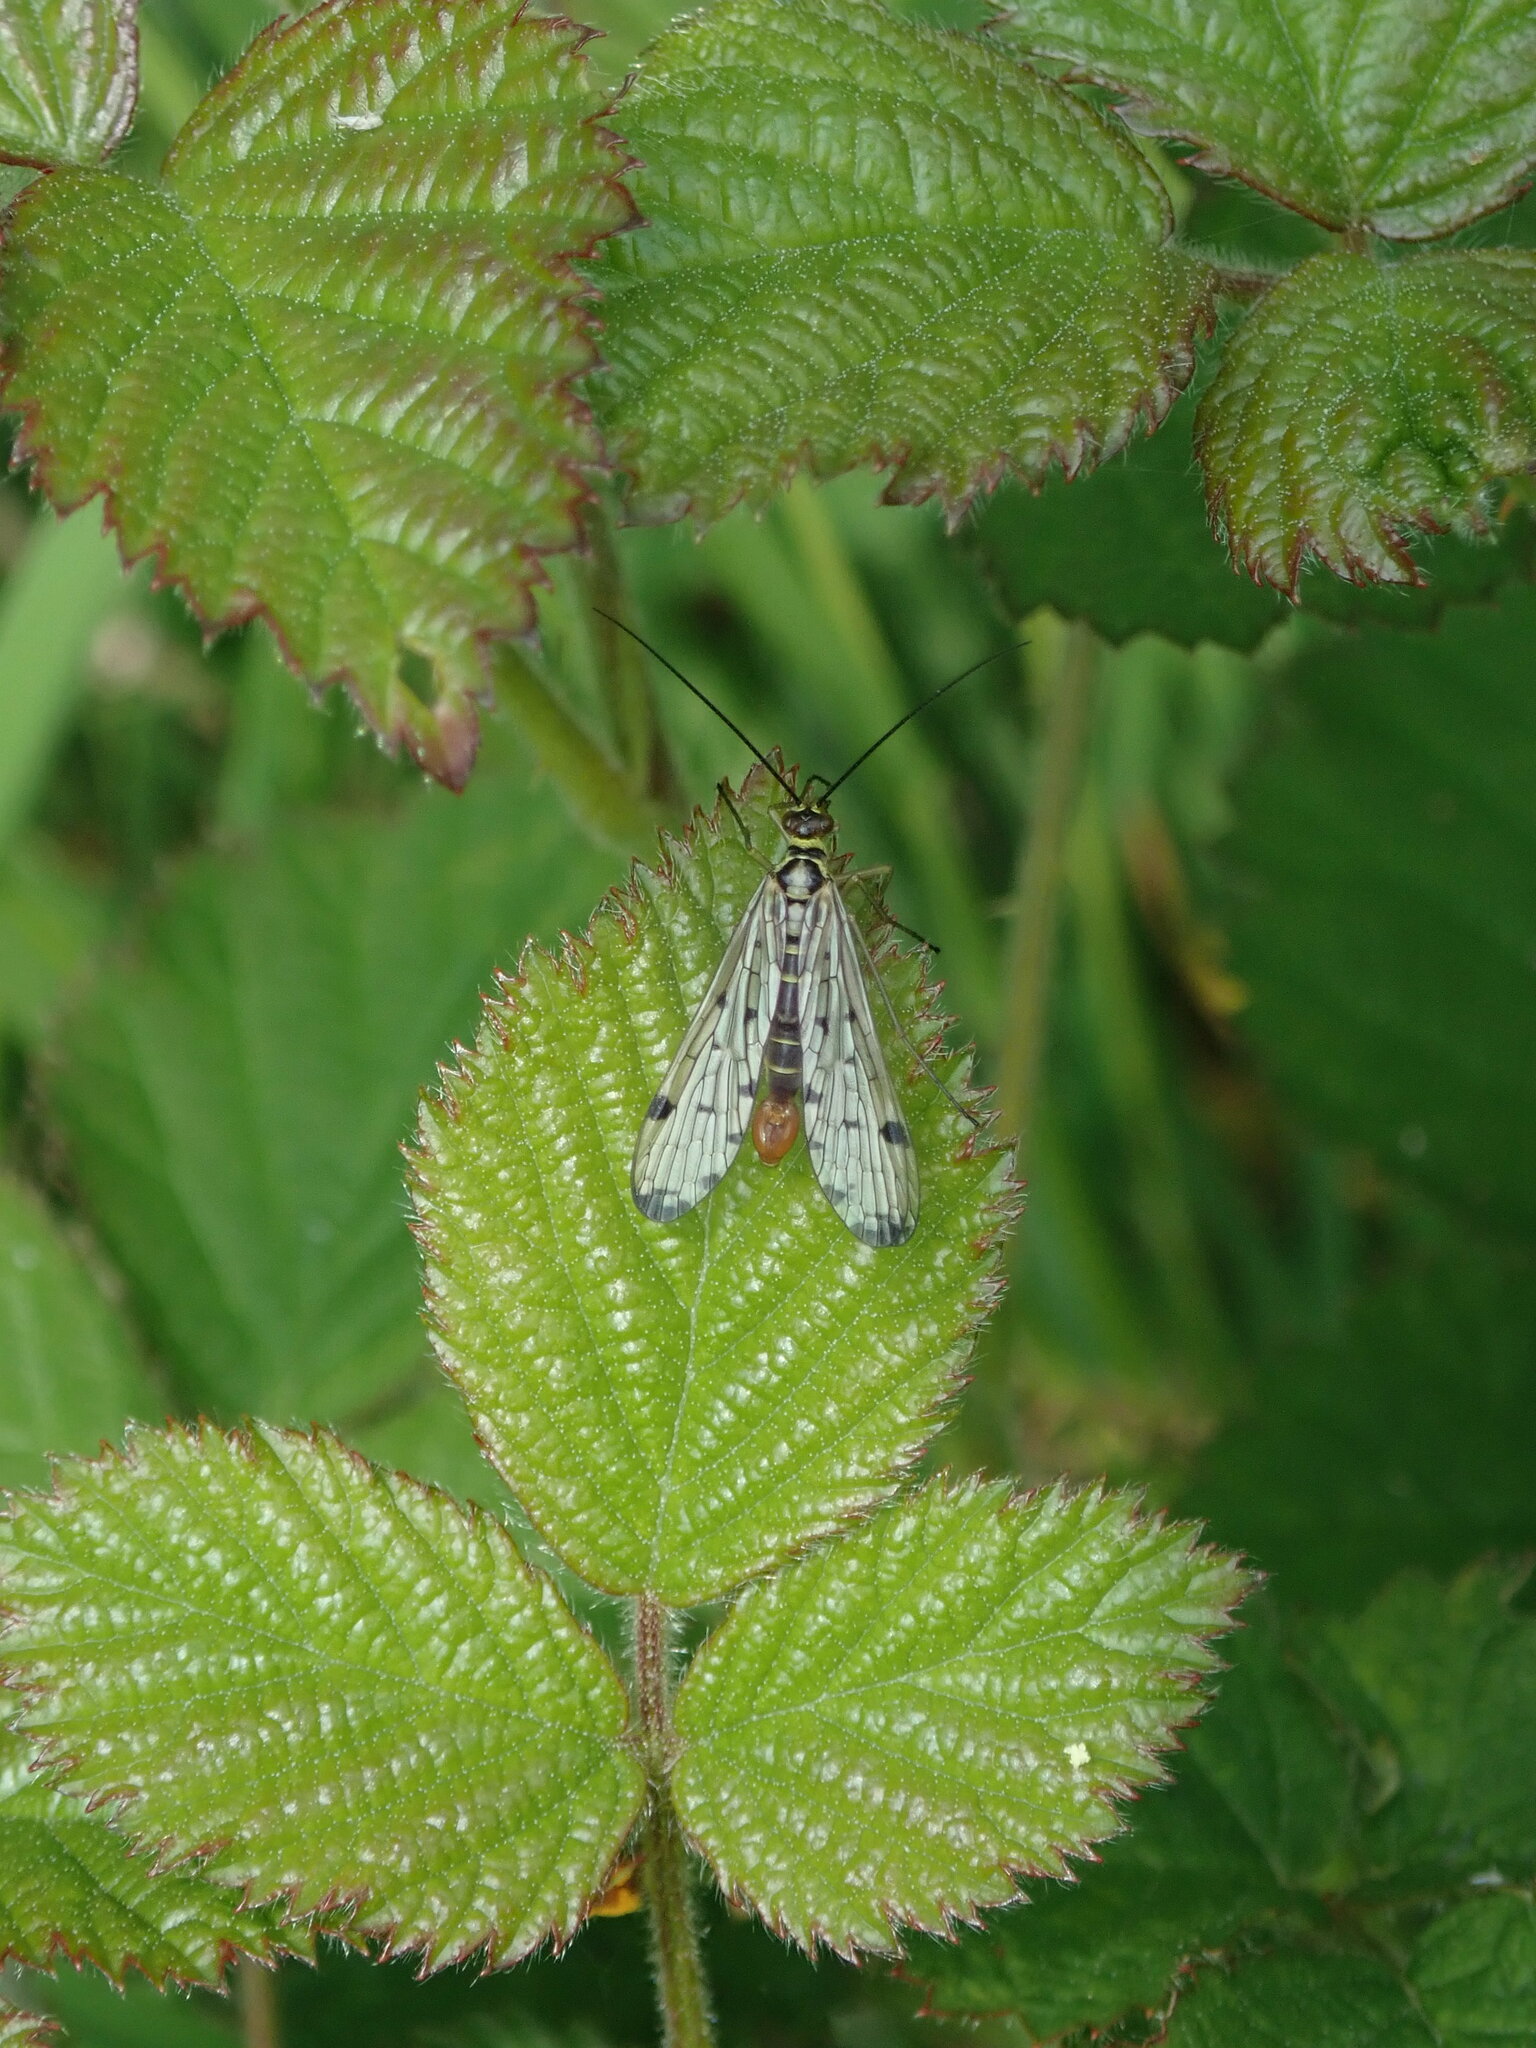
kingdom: Animalia
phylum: Arthropoda
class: Insecta
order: Mecoptera
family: Panorpidae
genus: Panorpa
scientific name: Panorpa germanica
